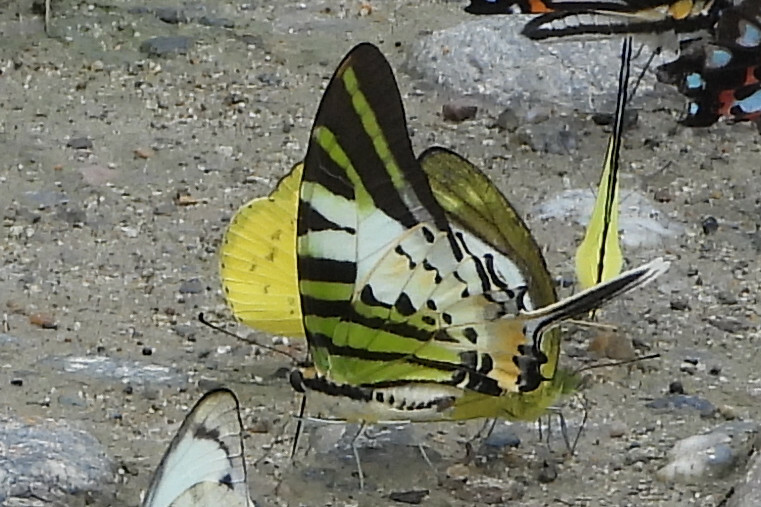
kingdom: Animalia
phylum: Arthropoda
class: Insecta
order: Lepidoptera
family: Papilionidae
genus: Graphium
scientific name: Graphium antiphates
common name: Fivebar swordtail
